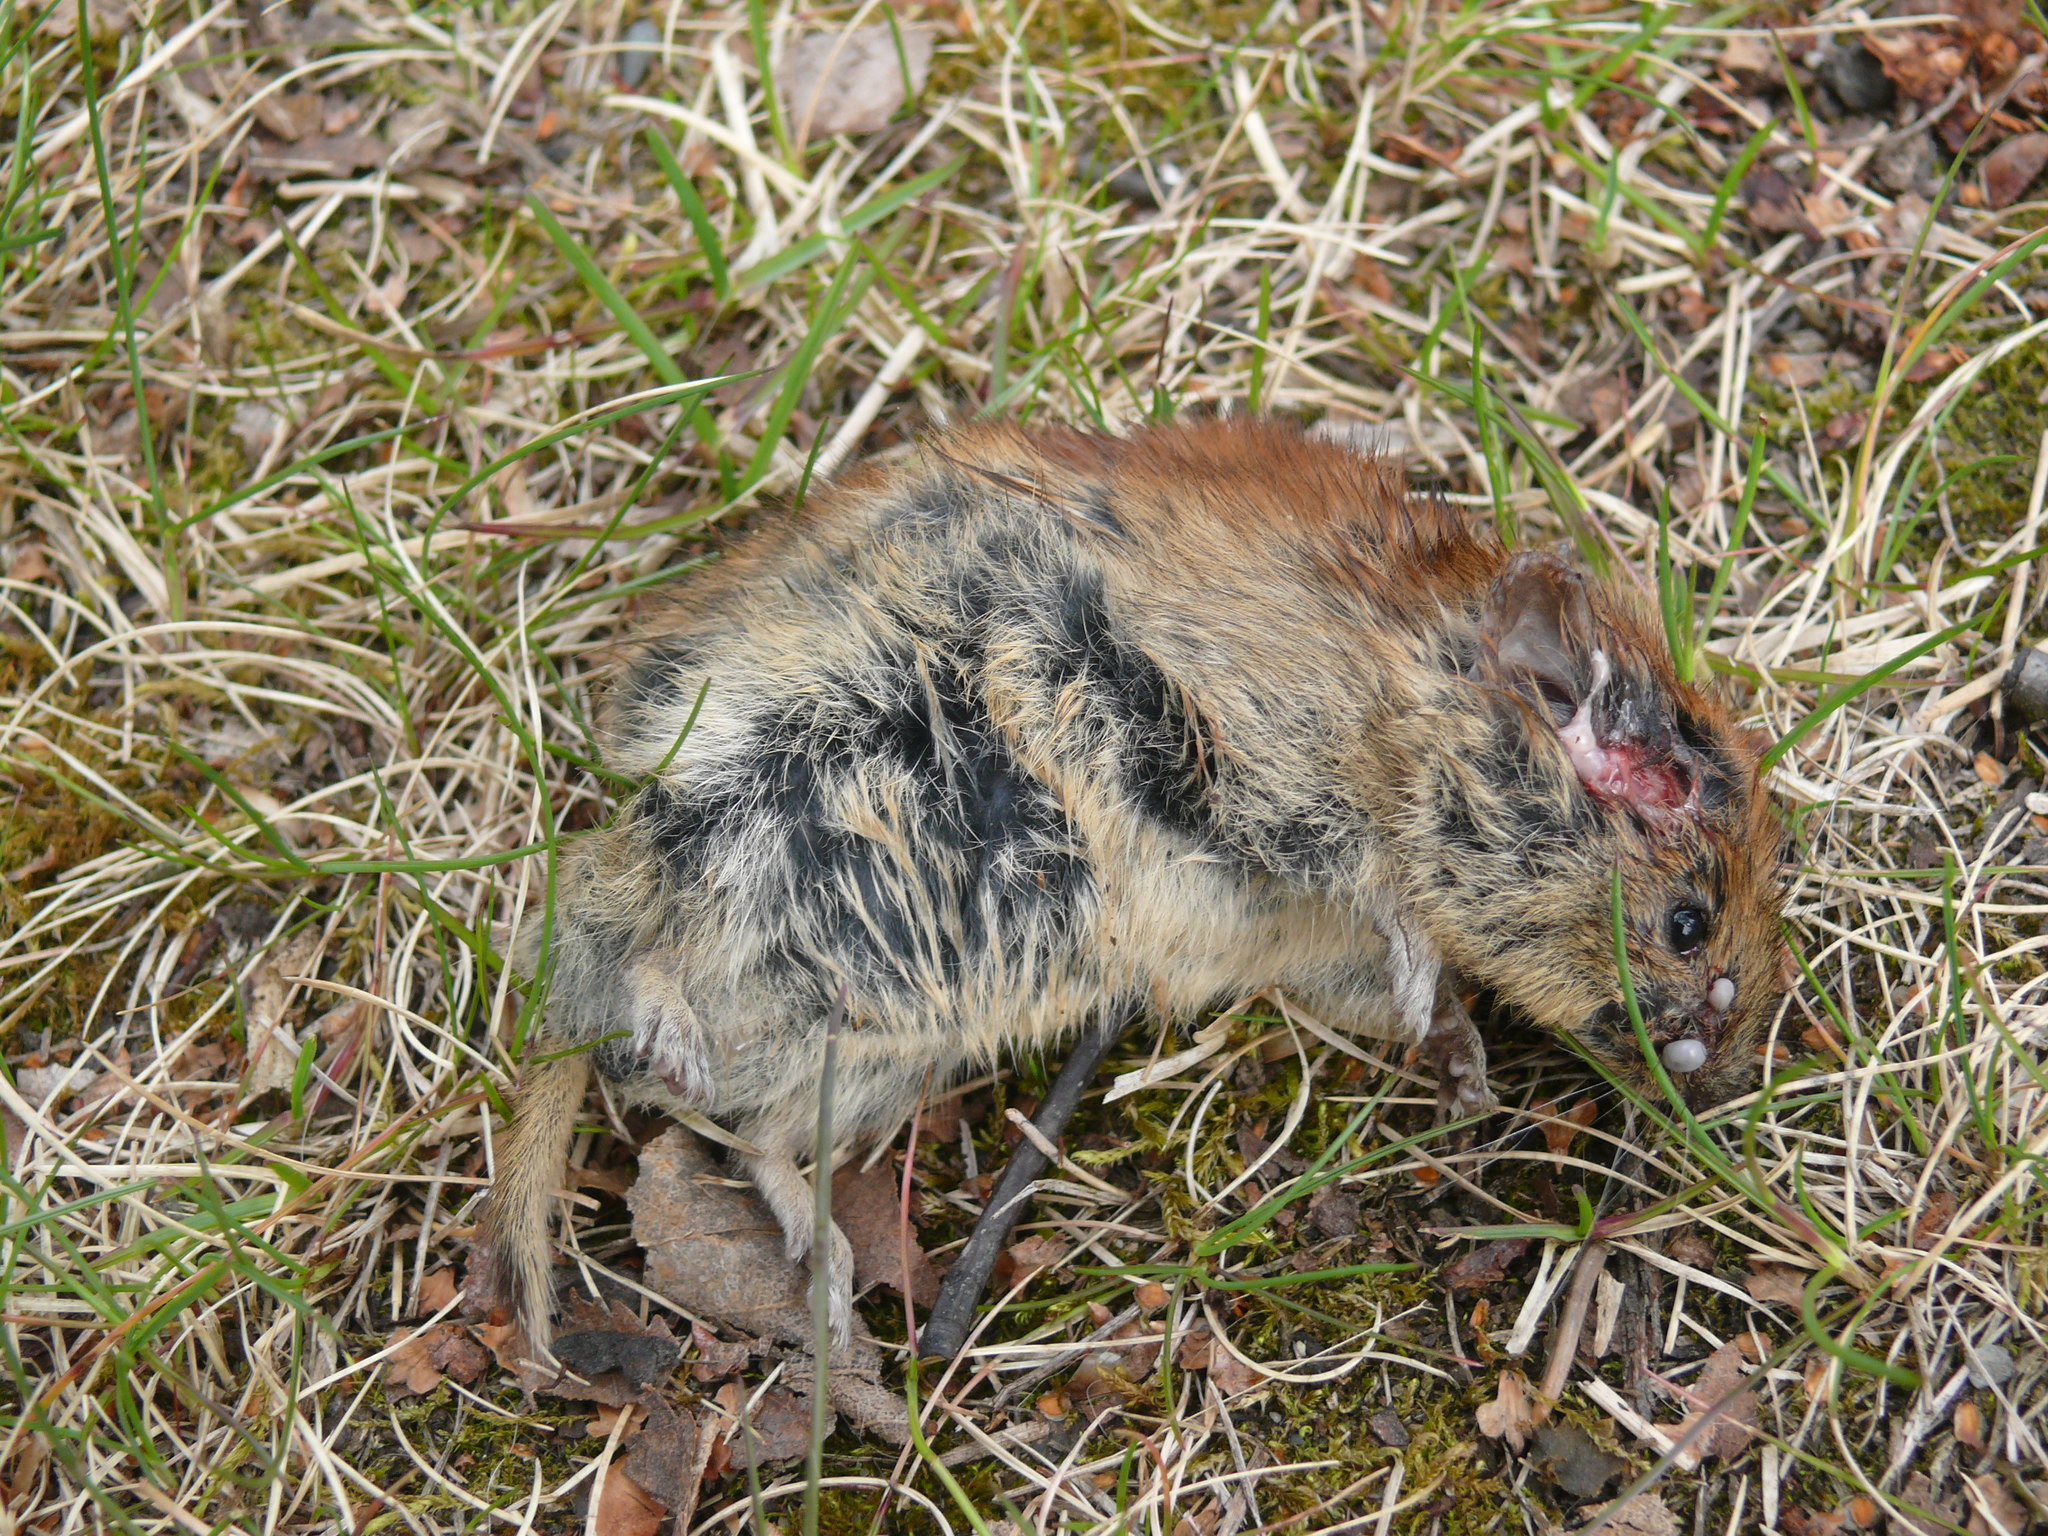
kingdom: Animalia
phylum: Chordata
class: Mammalia
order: Rodentia
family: Cricetidae
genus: Myodes
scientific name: Myodes rutilus
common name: Northern red-backed vole
